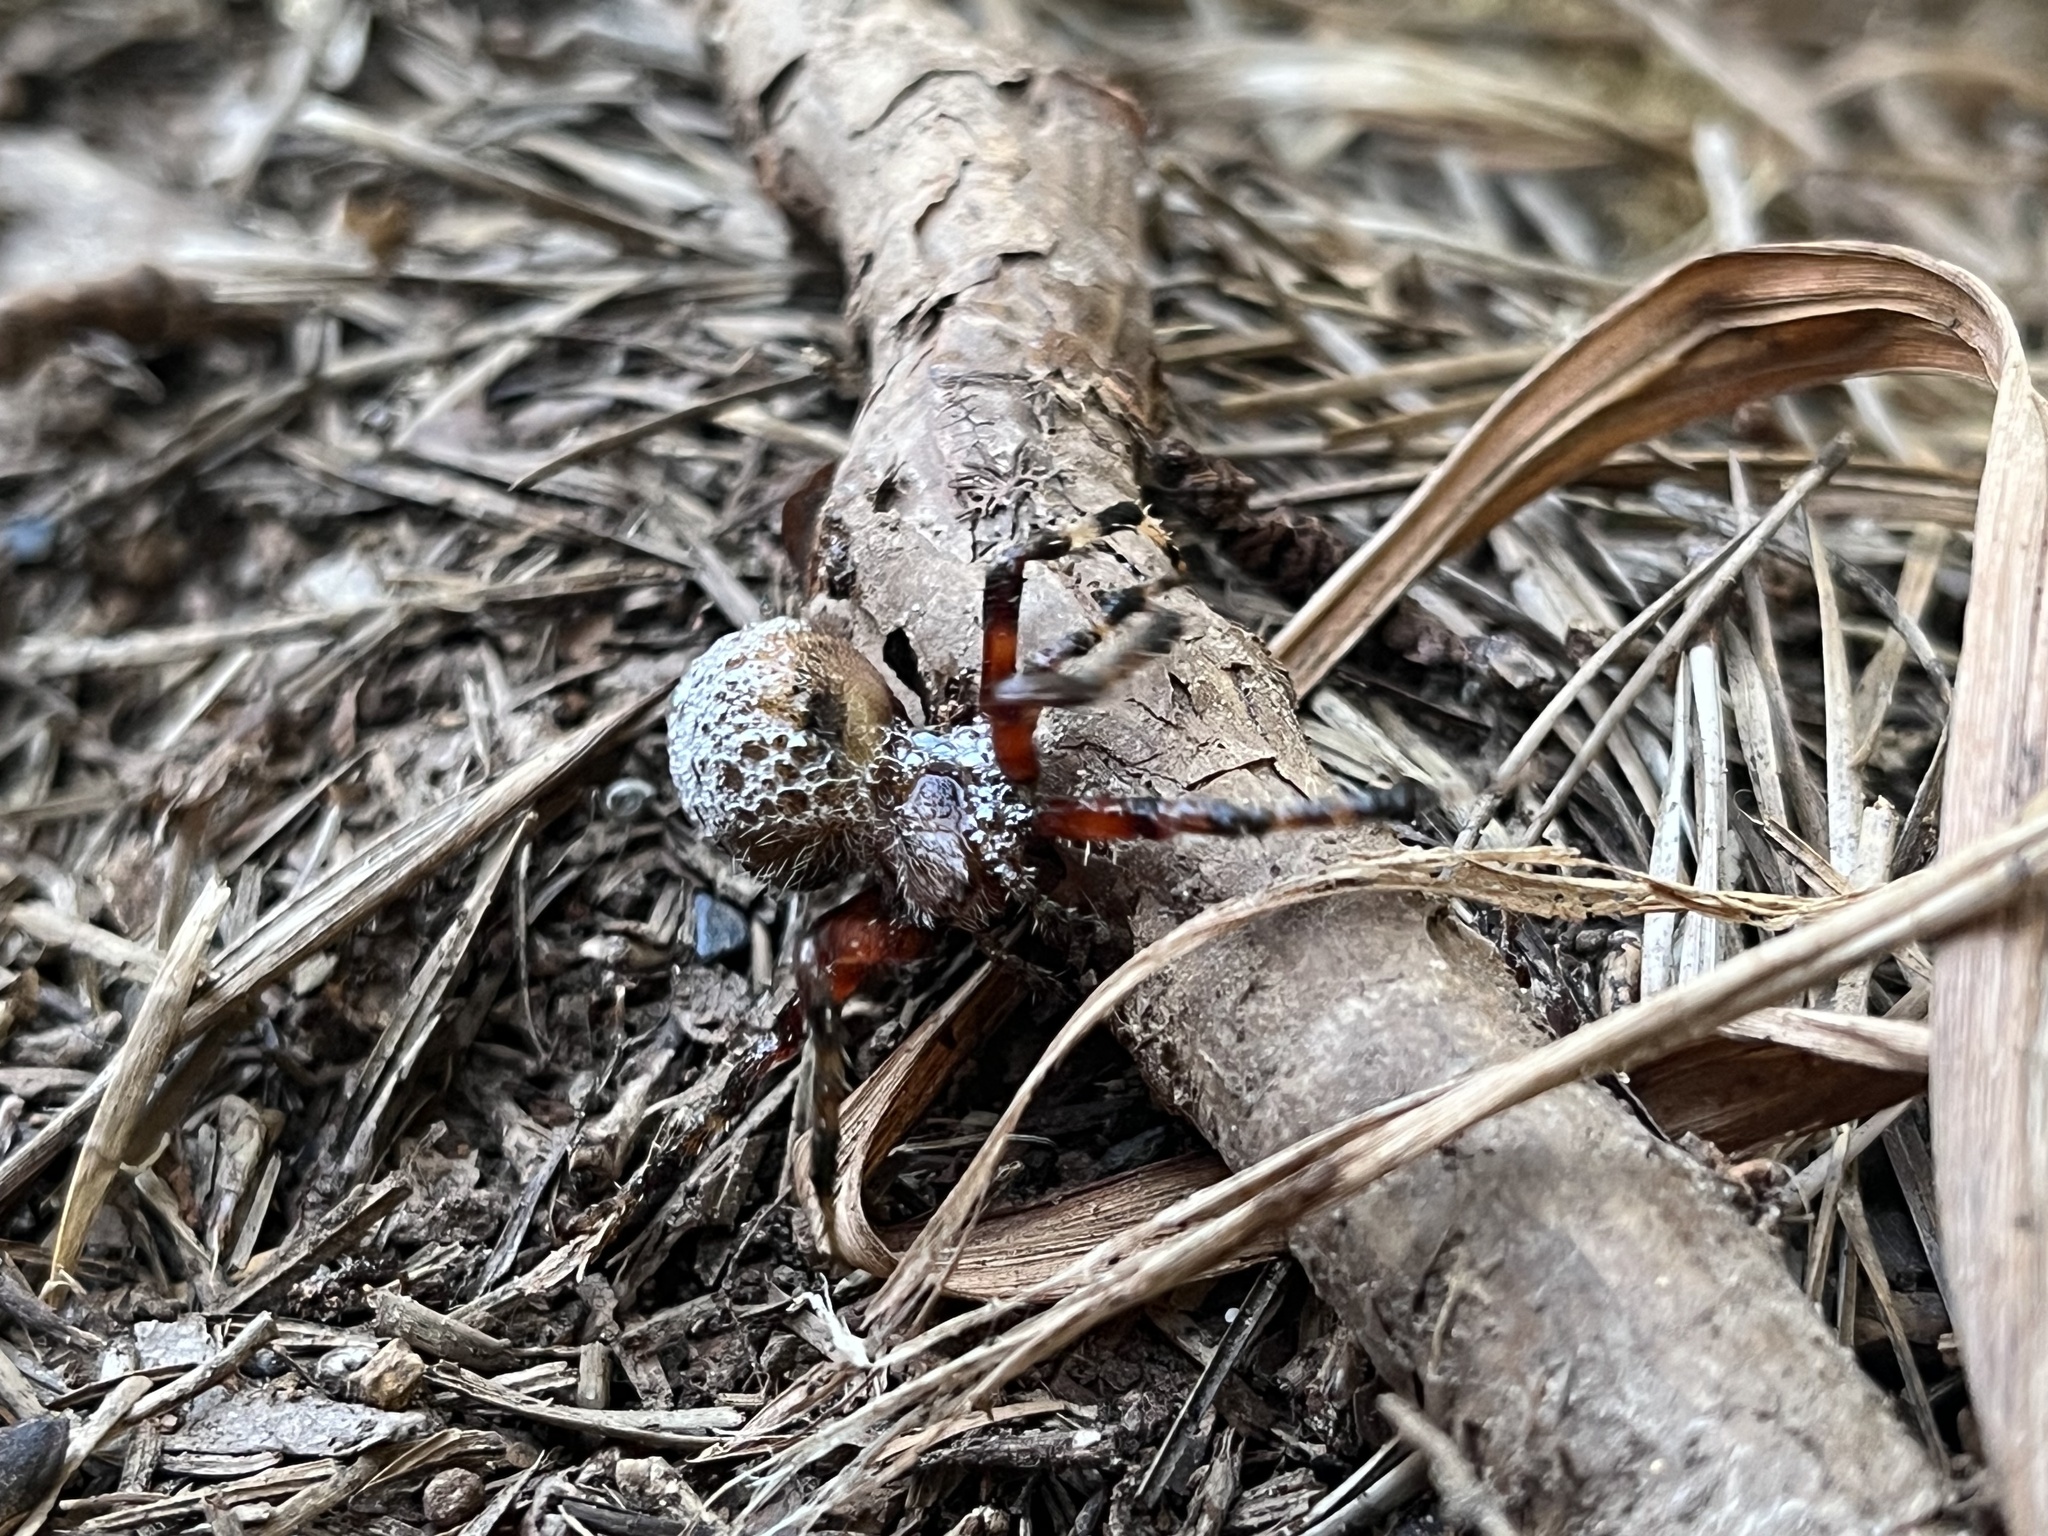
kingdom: Animalia
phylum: Arthropoda
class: Arachnida
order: Araneae
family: Araneidae
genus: Neoscona
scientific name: Neoscona domiciliorum
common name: Red-femured spotted orbweaver
